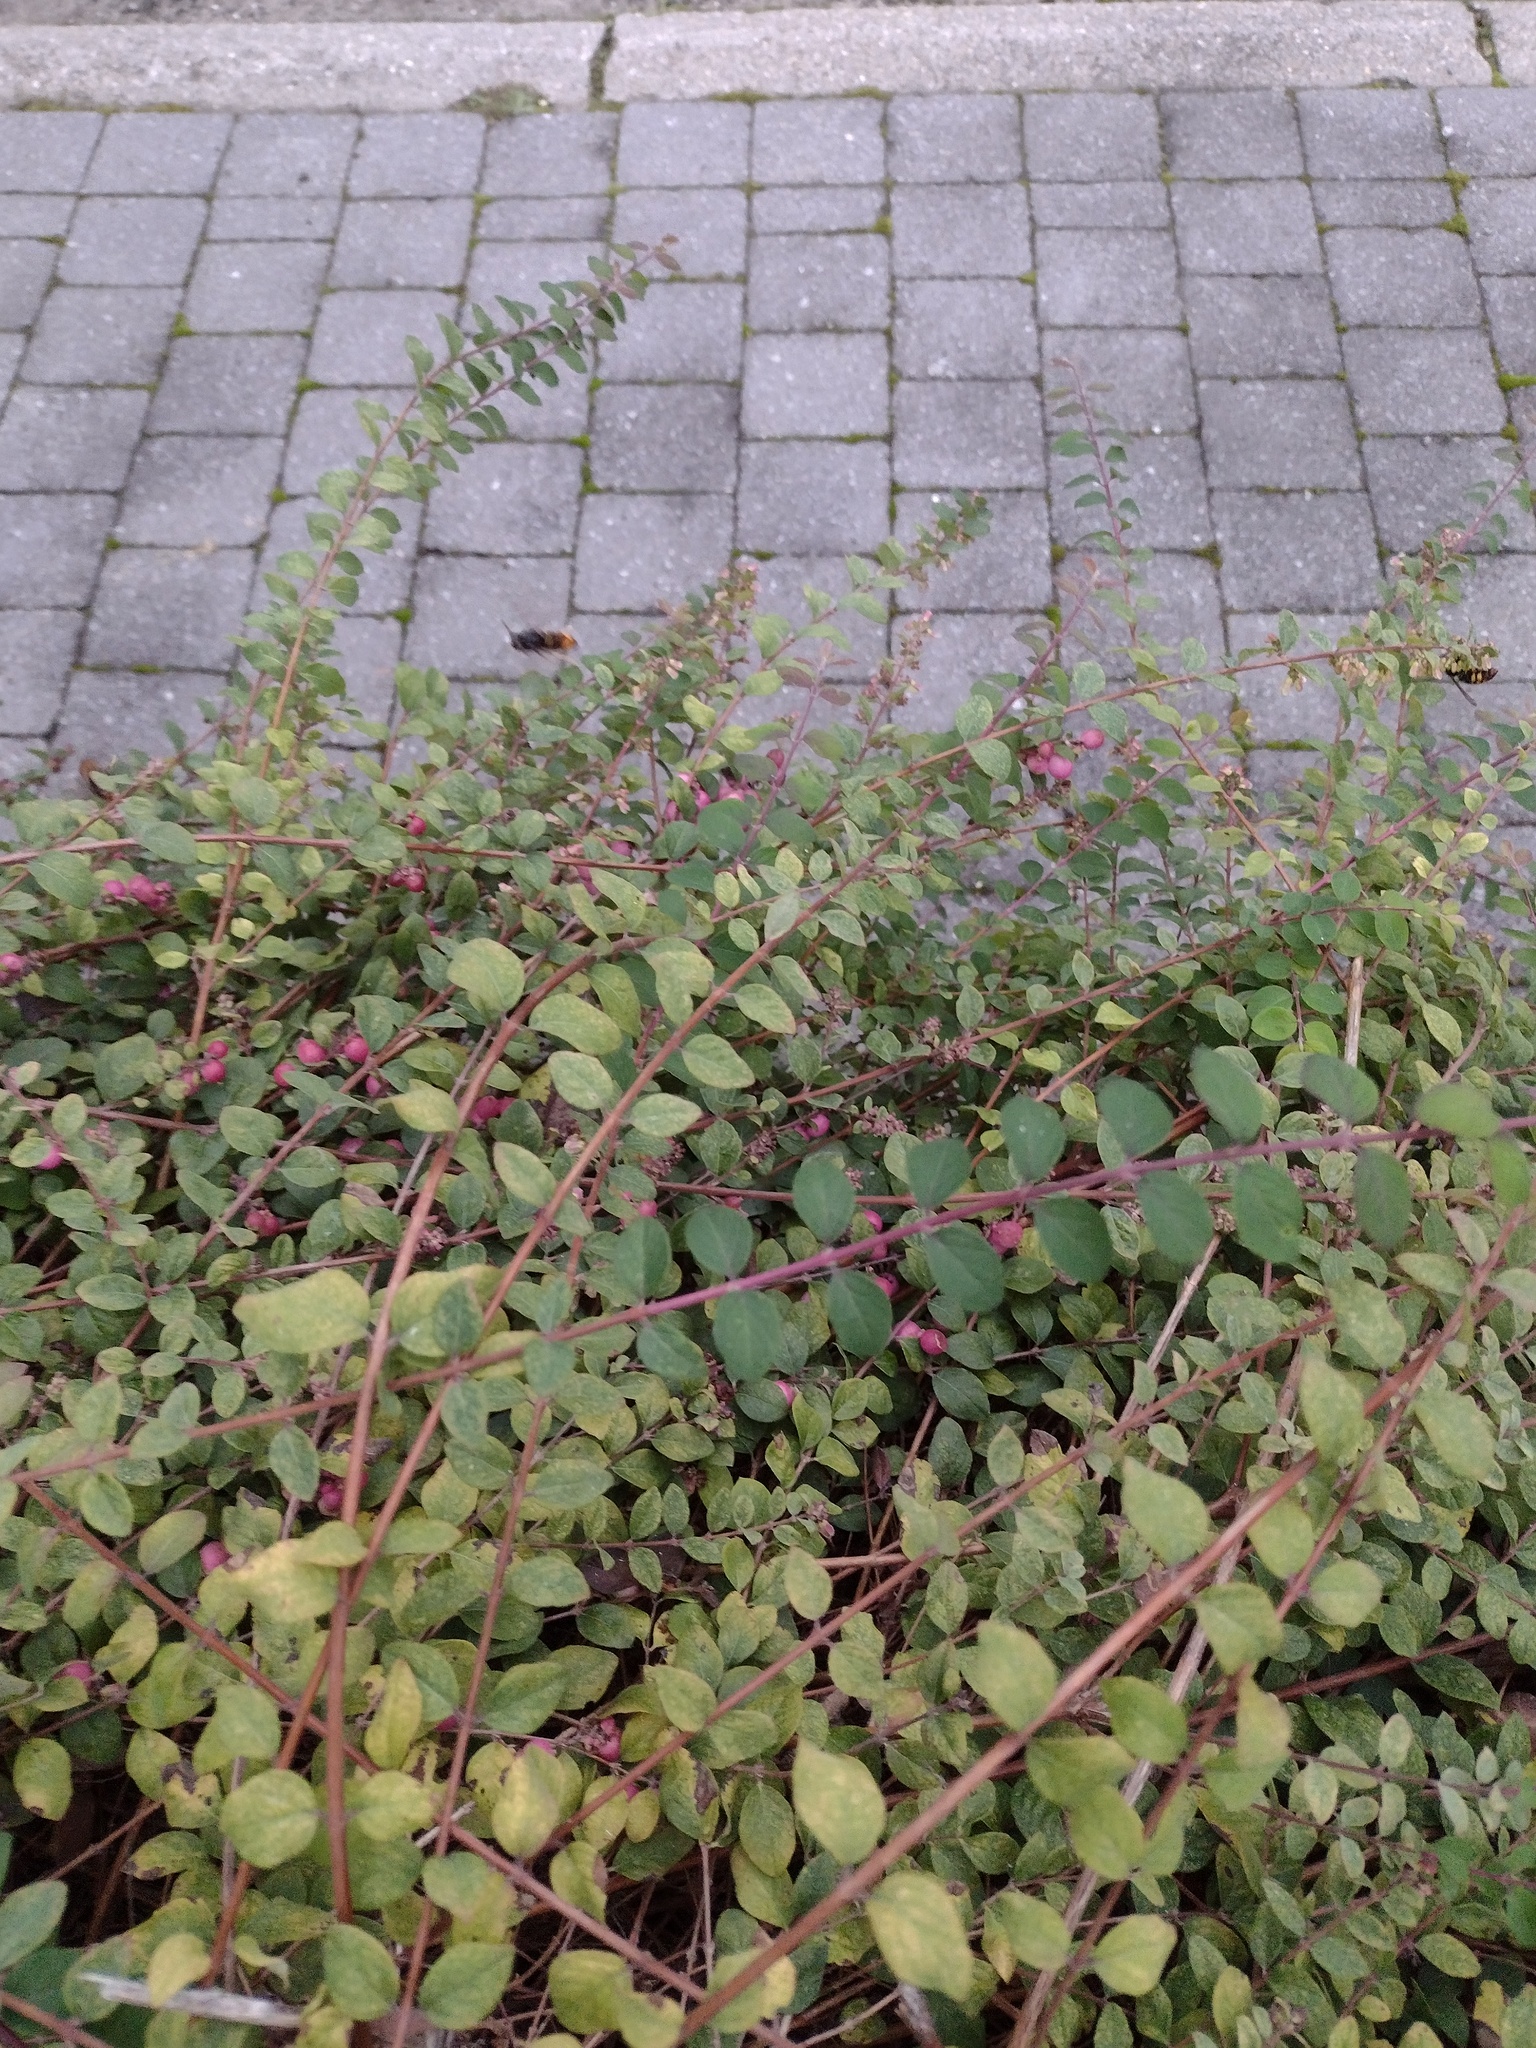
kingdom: Animalia
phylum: Arthropoda
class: Insecta
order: Hymenoptera
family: Vespidae
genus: Vespa
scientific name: Vespa velutina
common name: Asian hornet
